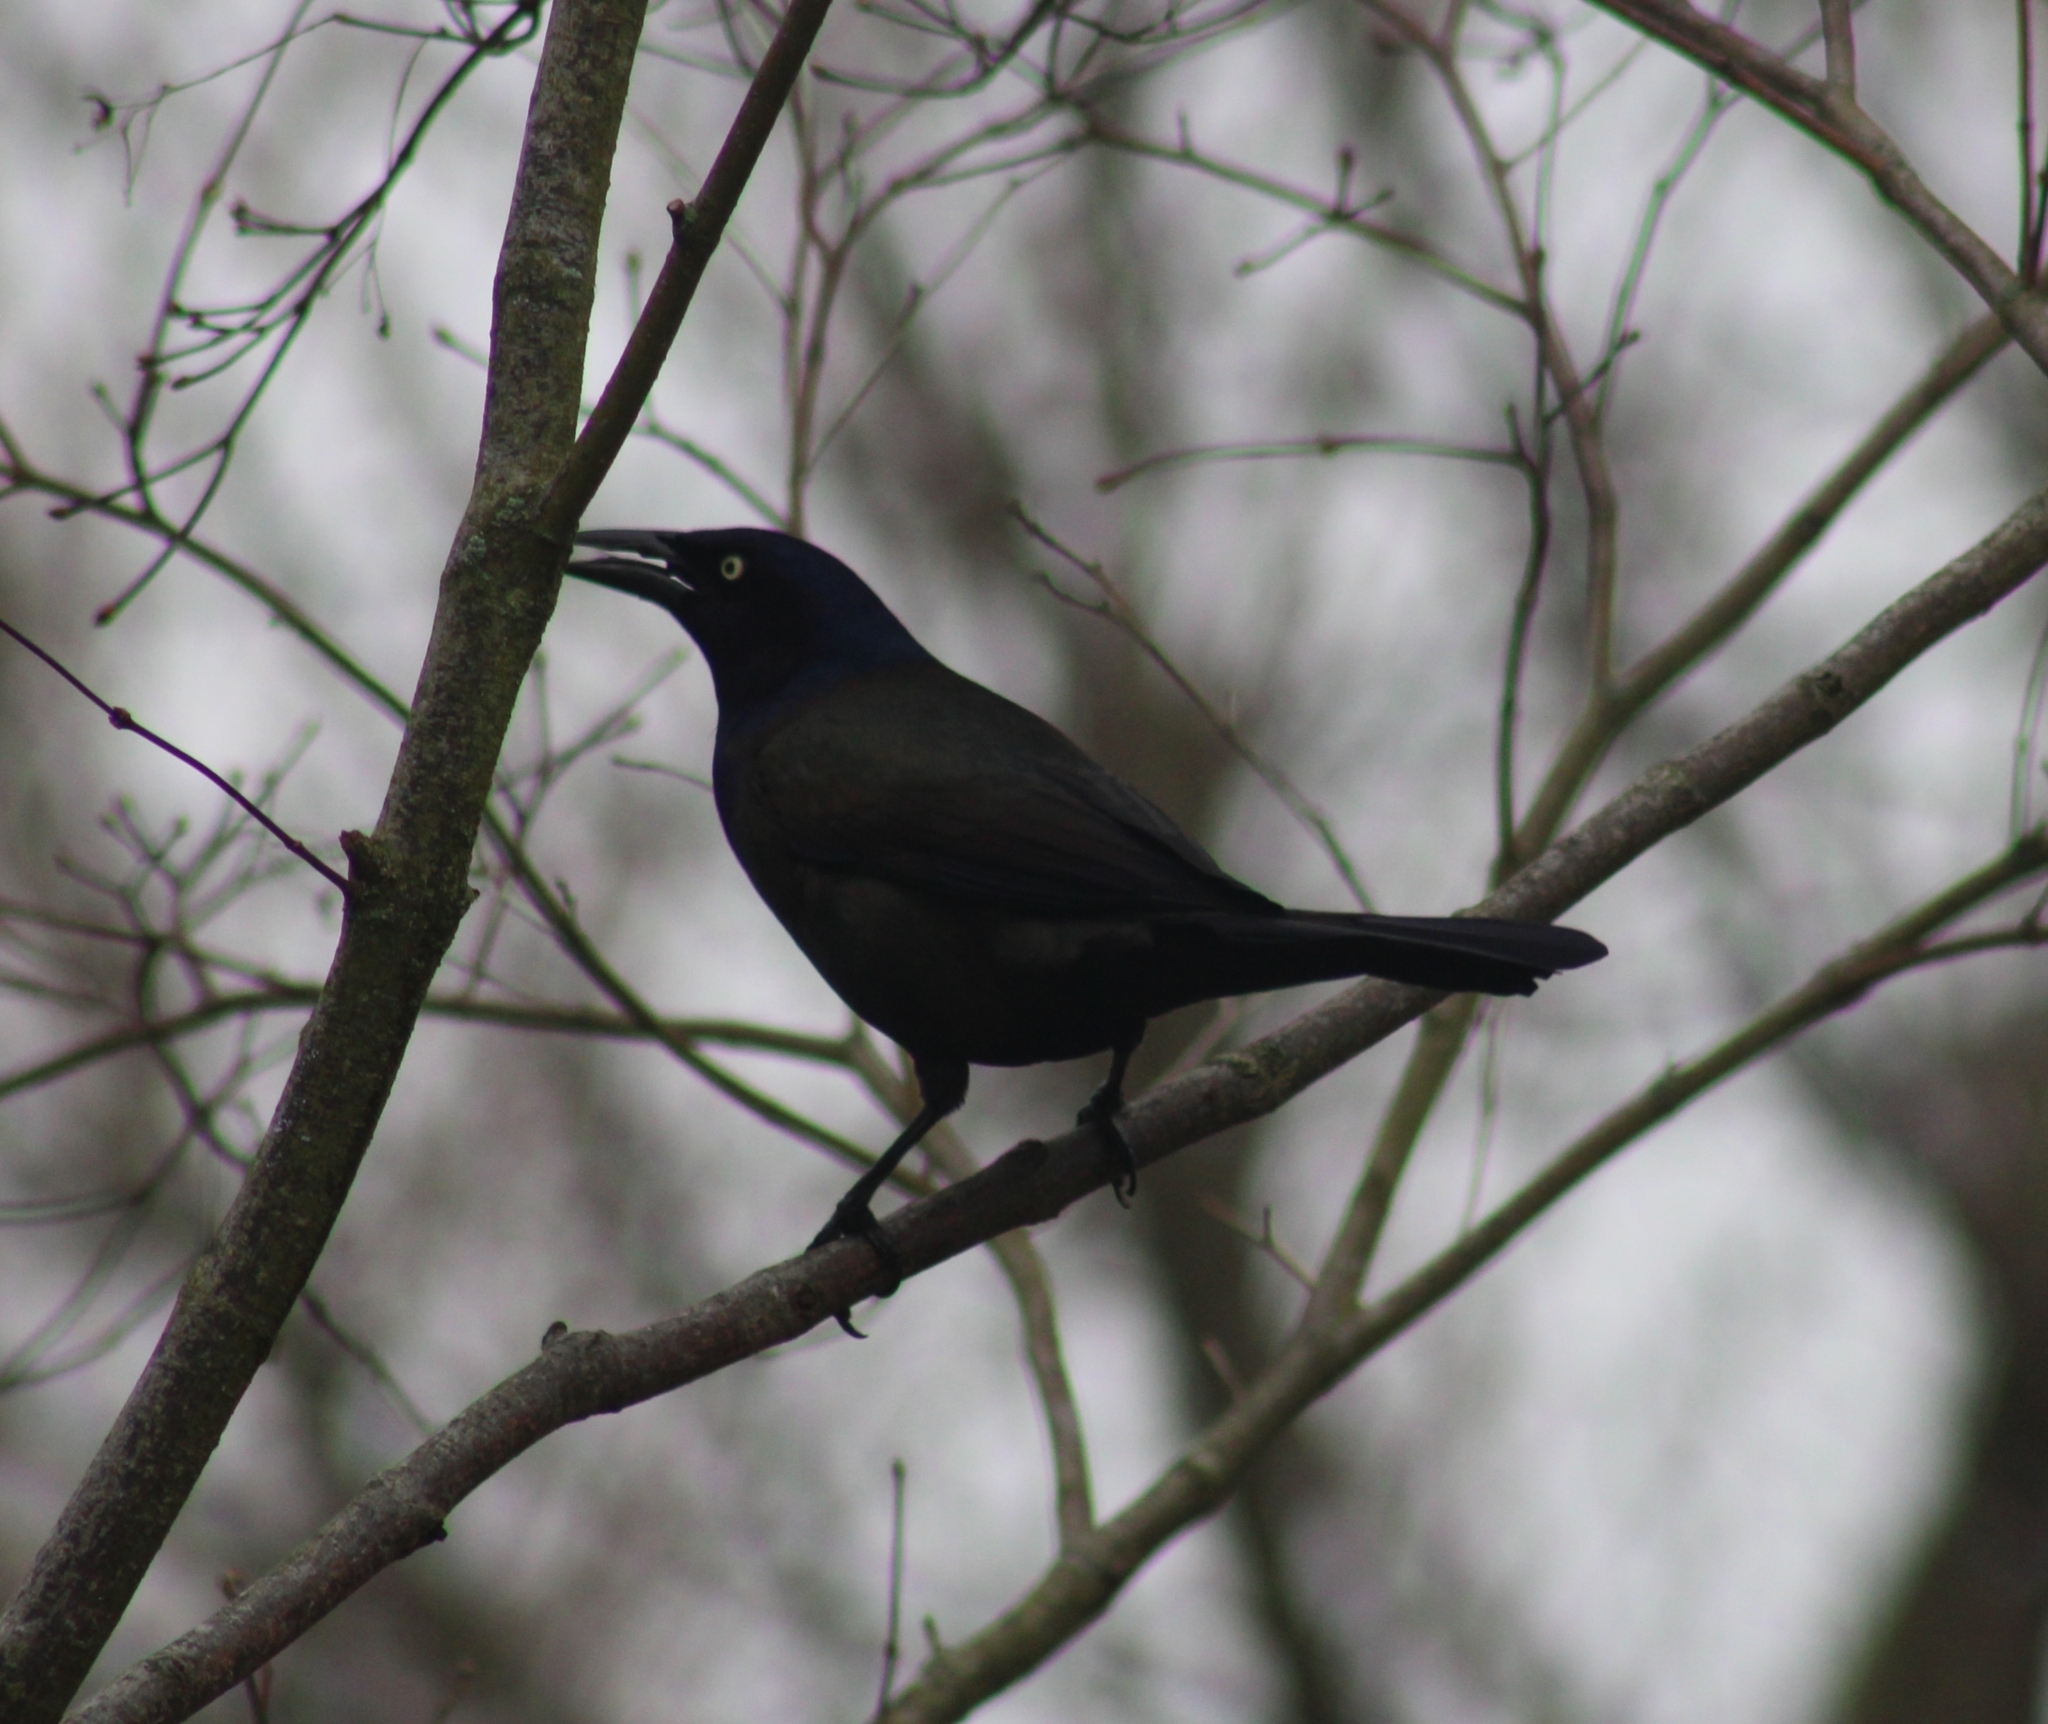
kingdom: Animalia
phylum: Chordata
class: Aves
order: Passeriformes
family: Icteridae
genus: Quiscalus
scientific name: Quiscalus quiscula
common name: Common grackle
